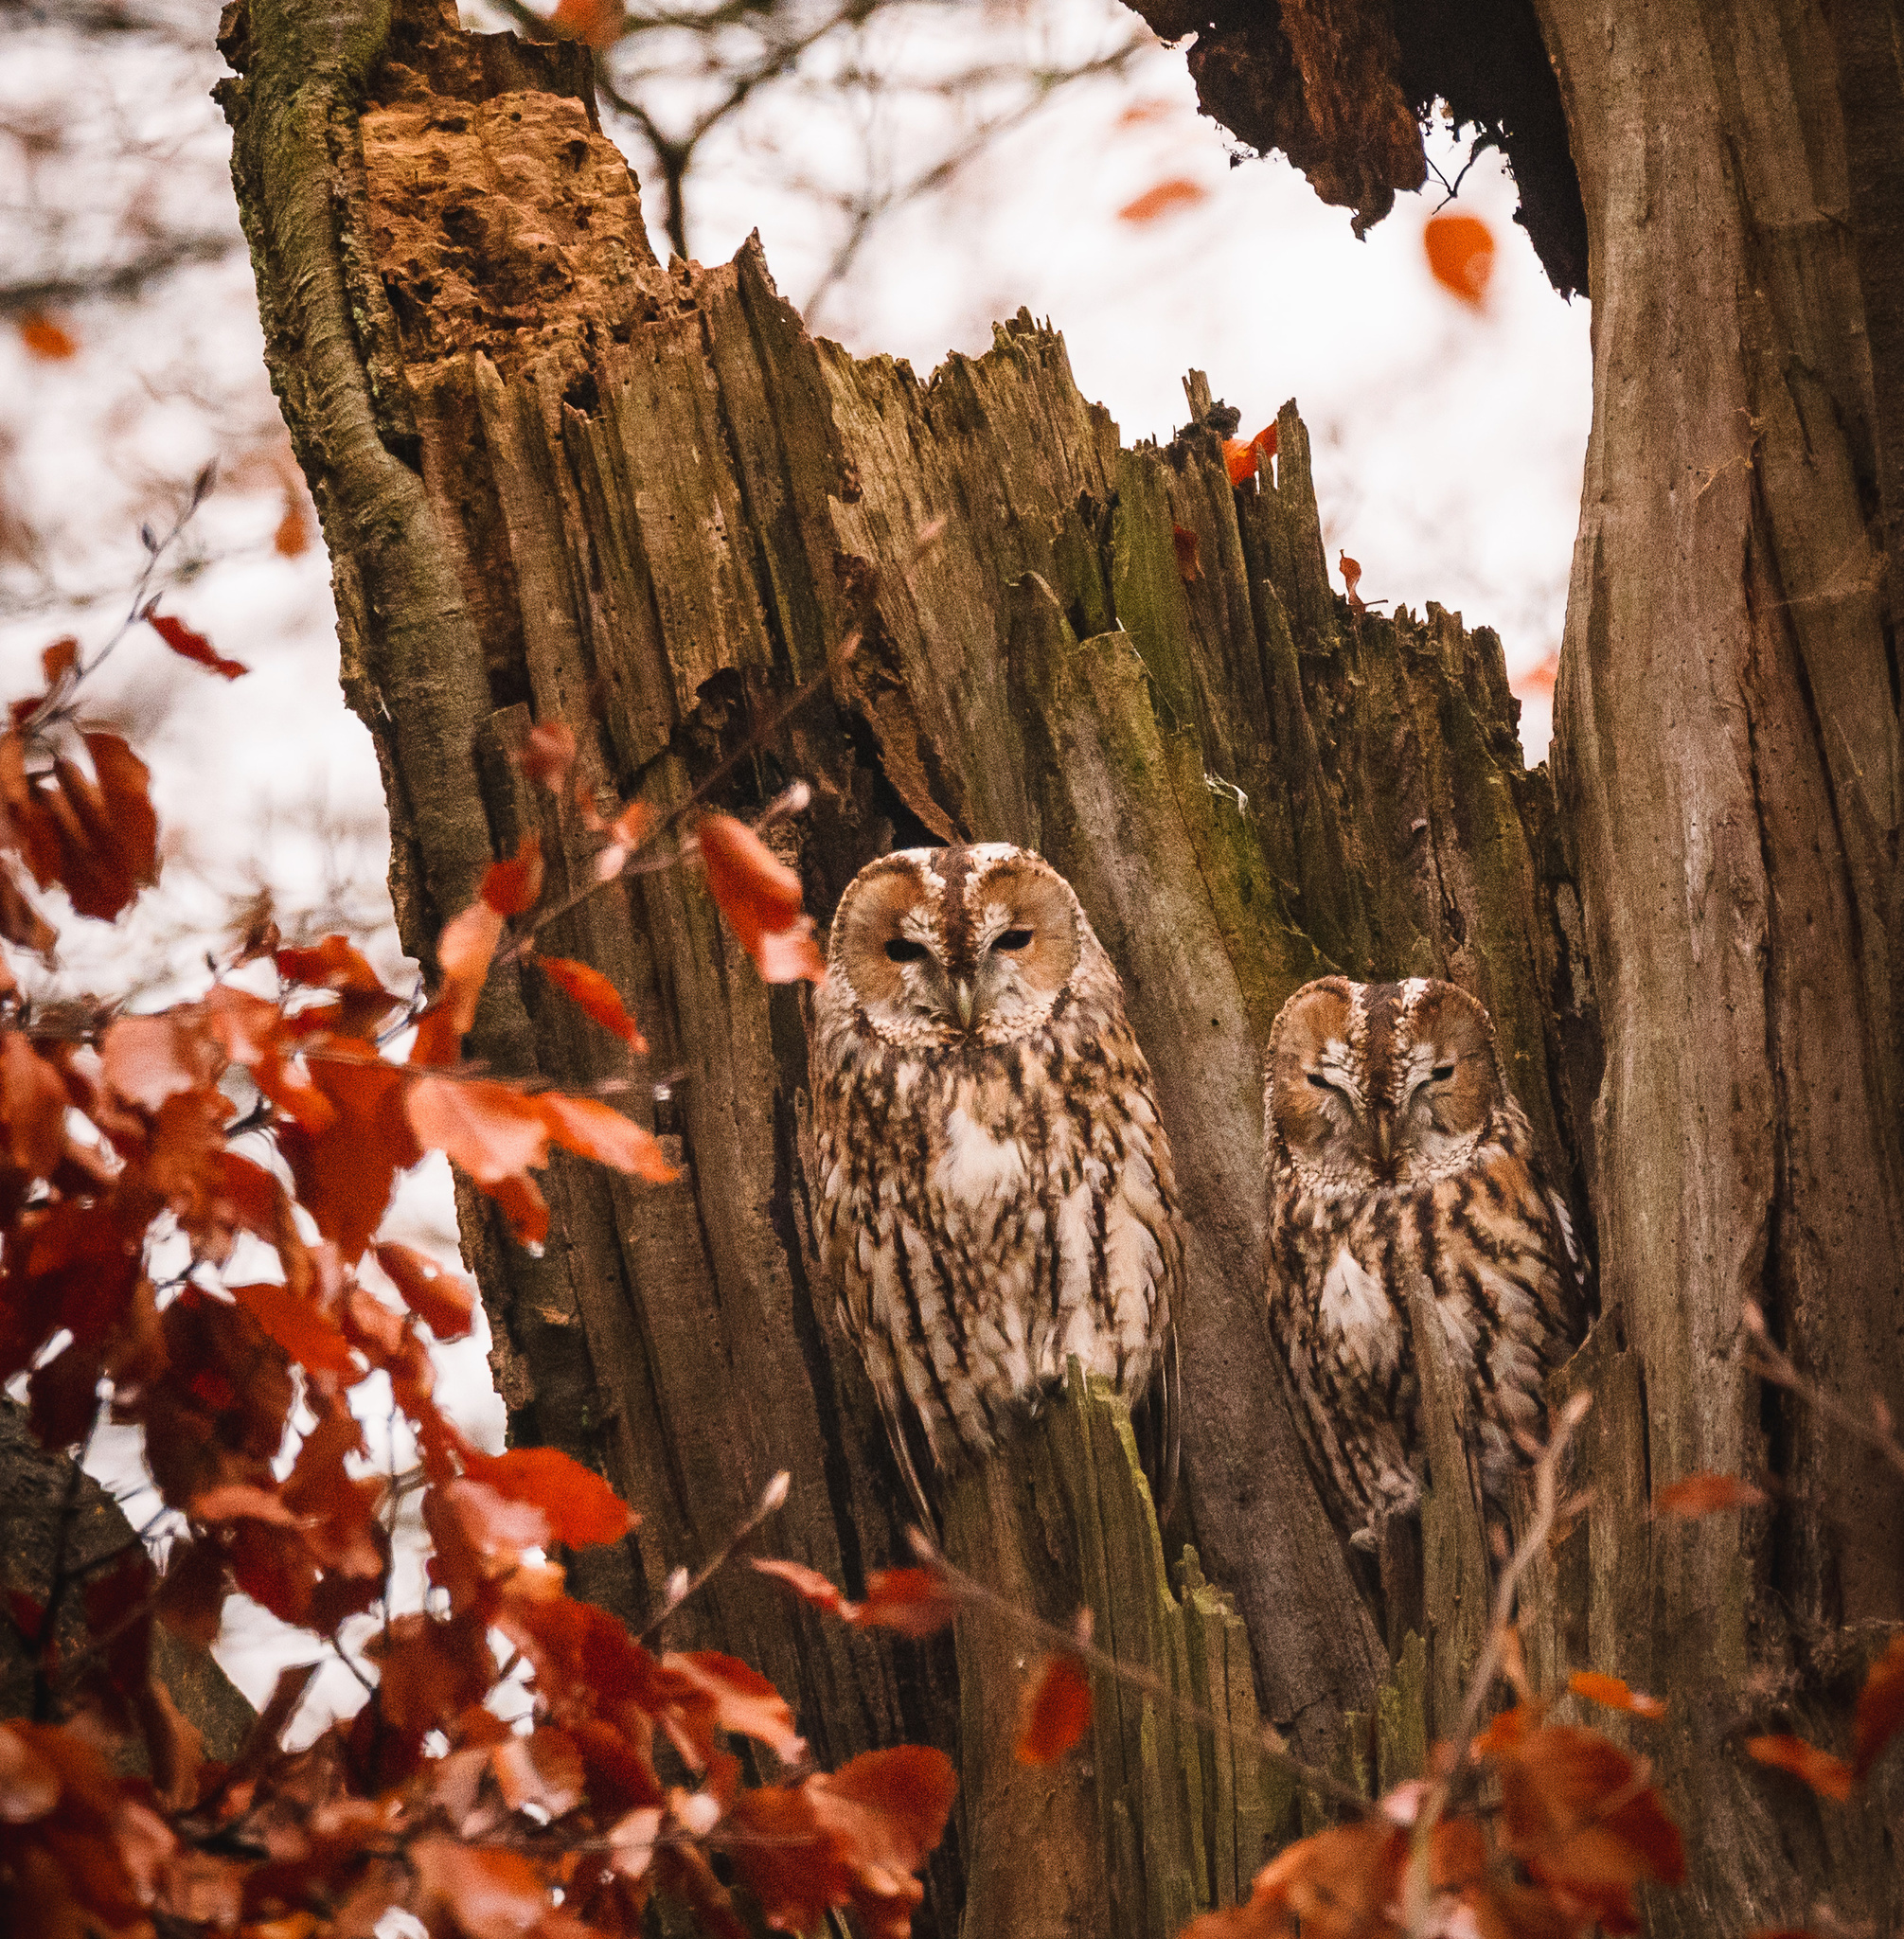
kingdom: Animalia
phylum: Chordata
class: Aves
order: Strigiformes
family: Strigidae
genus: Strix
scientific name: Strix aluco
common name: Tawny owl
